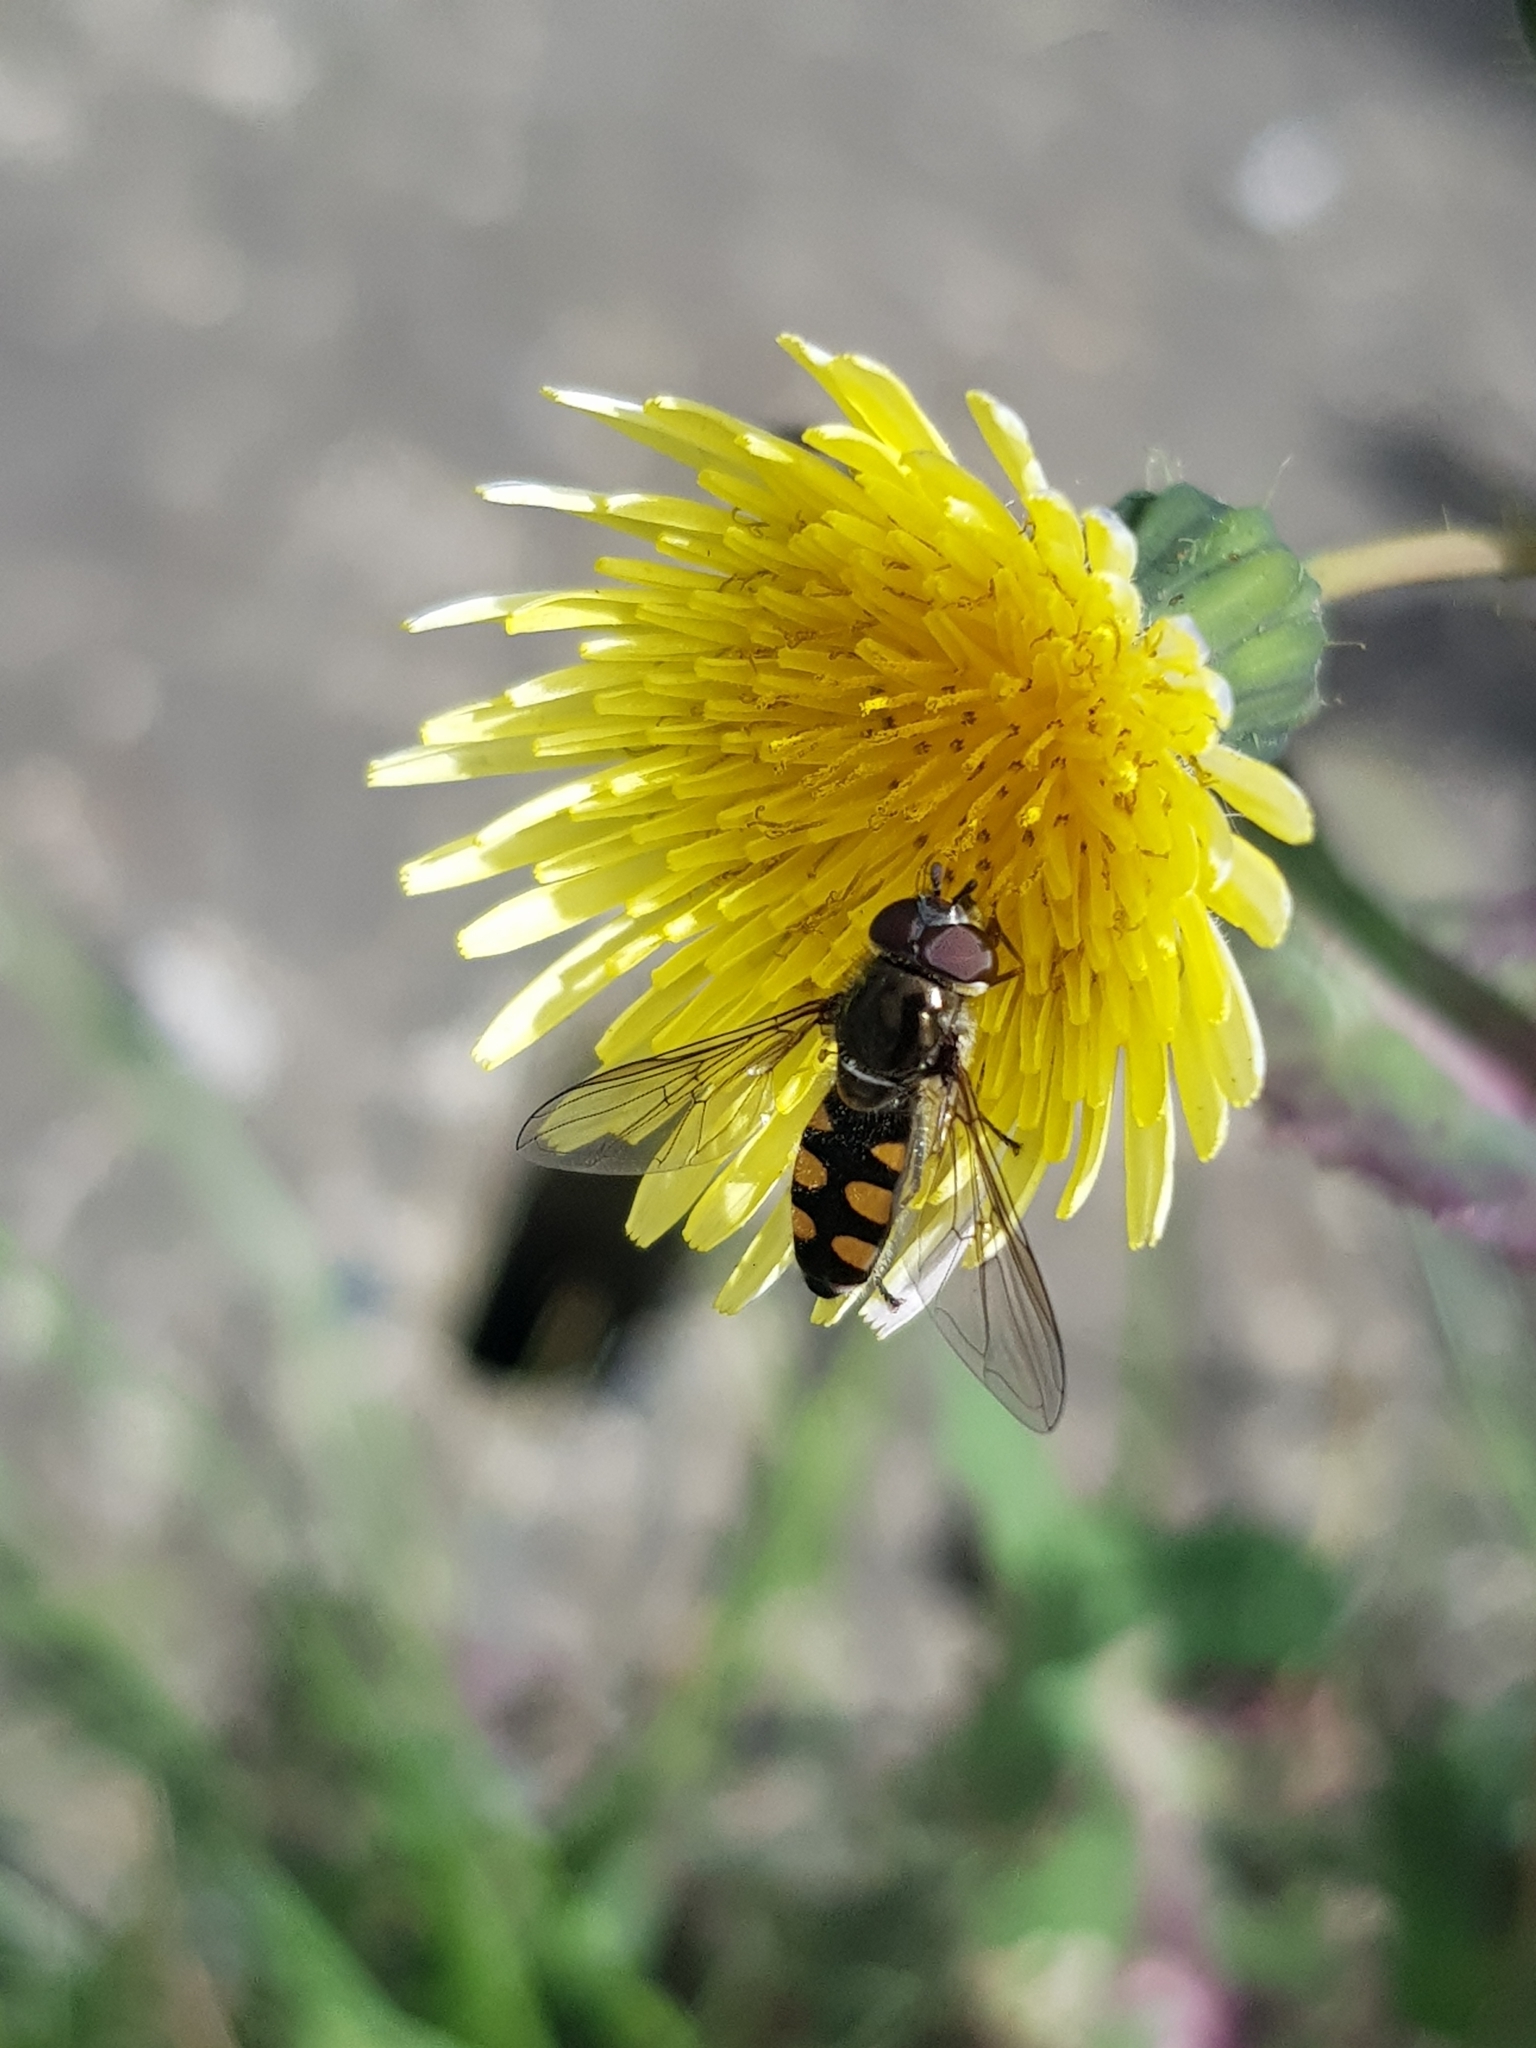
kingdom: Animalia
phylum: Arthropoda
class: Insecta
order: Diptera
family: Syrphidae
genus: Melangyna
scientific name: Melangyna viridiceps
